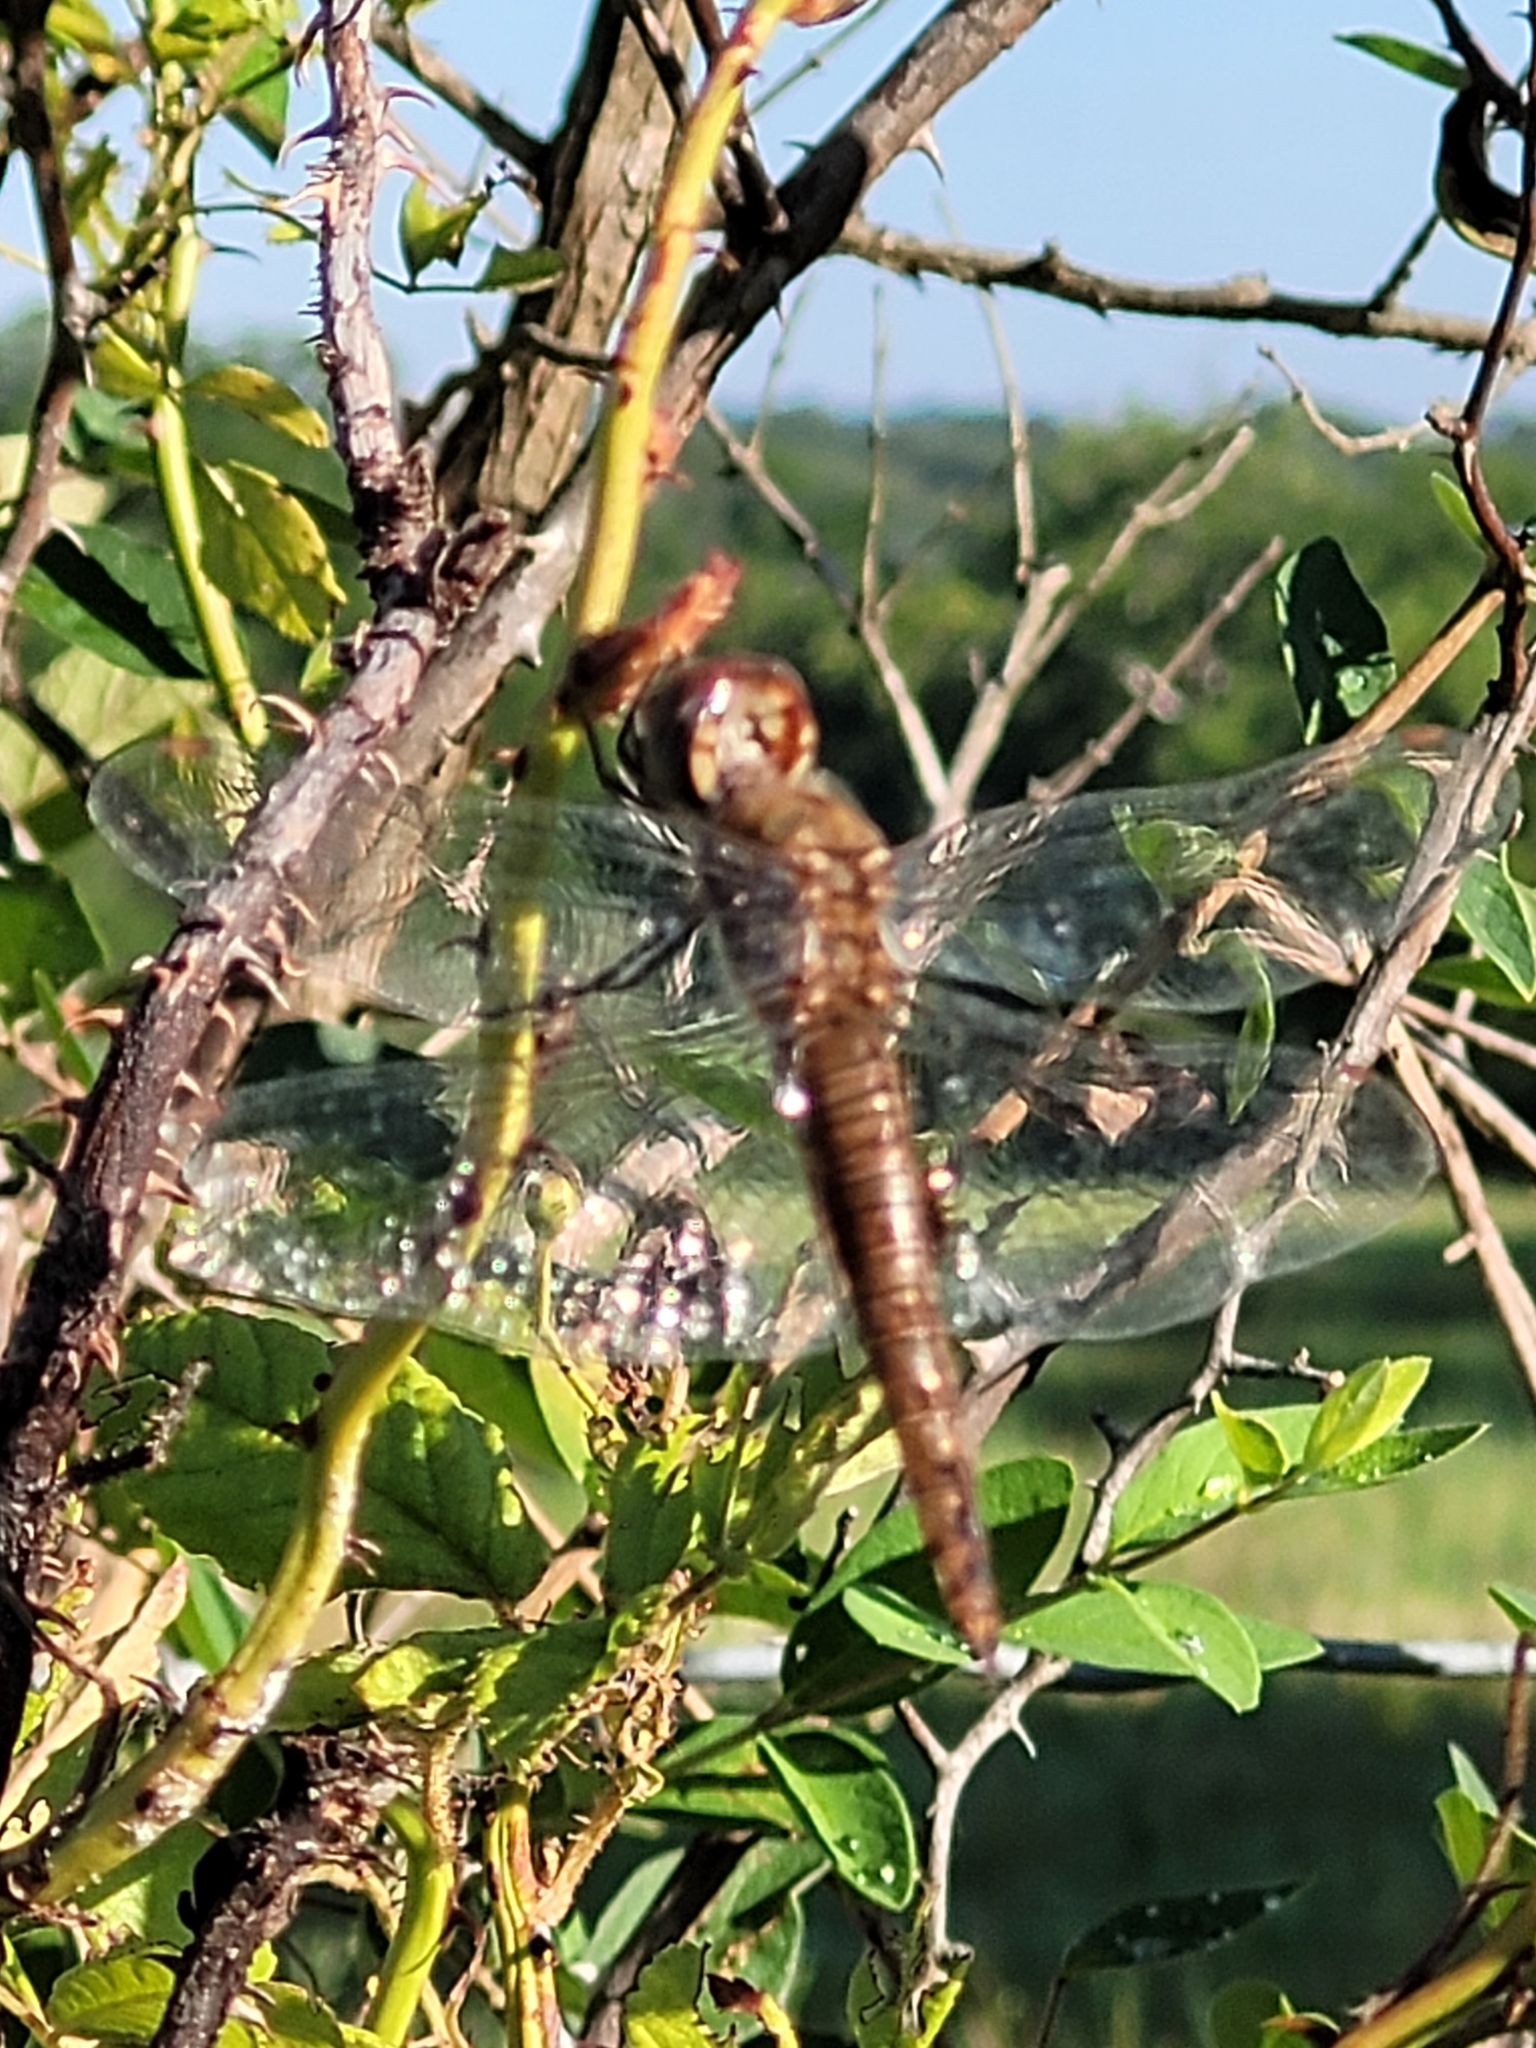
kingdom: Animalia
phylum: Arthropoda
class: Insecta
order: Odonata
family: Libellulidae
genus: Pantala
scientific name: Pantala hymenaea
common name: Spot-winged glider
